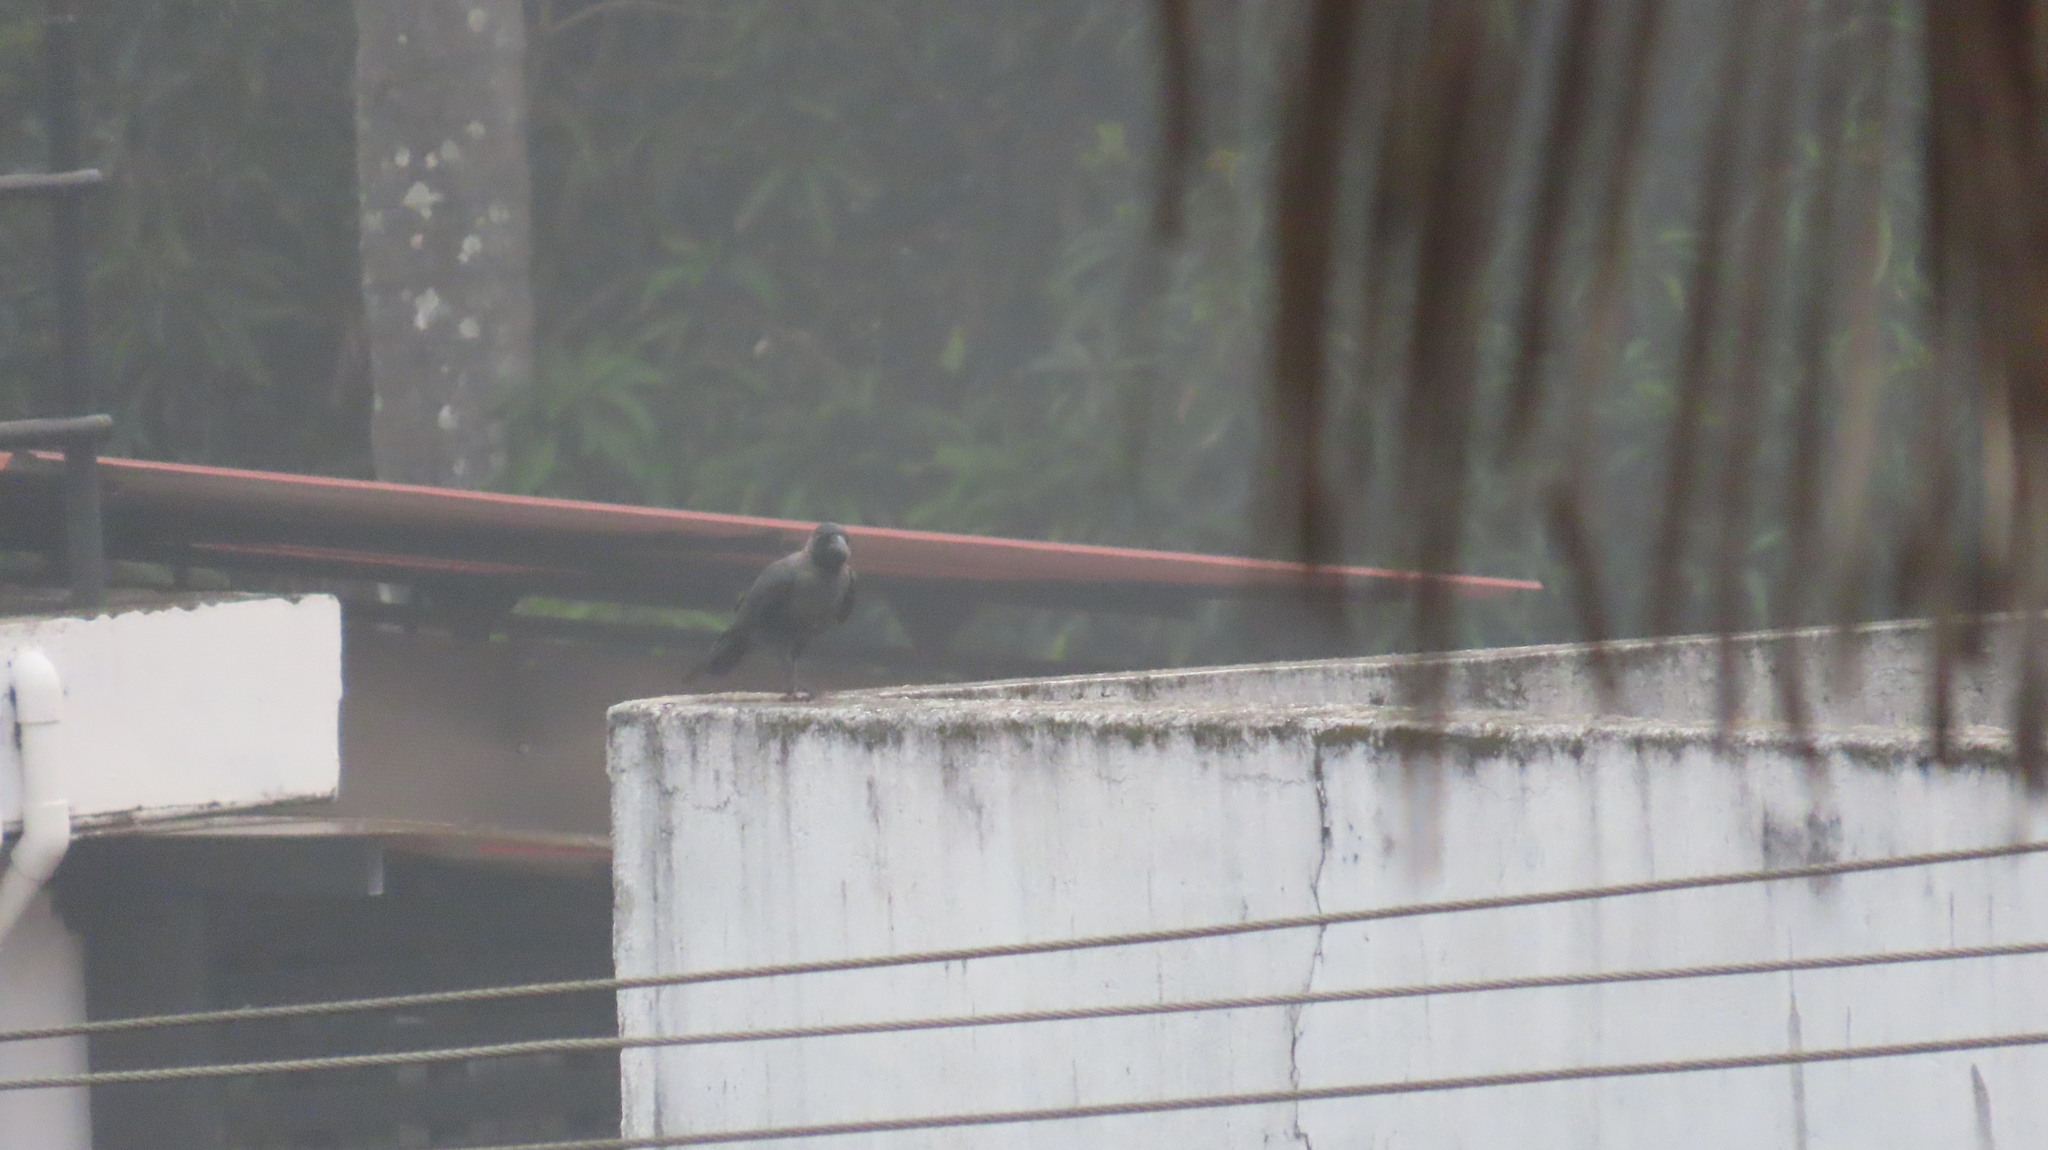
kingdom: Animalia
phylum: Chordata
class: Aves
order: Passeriformes
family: Corvidae
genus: Corvus
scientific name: Corvus splendens
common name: House crow
